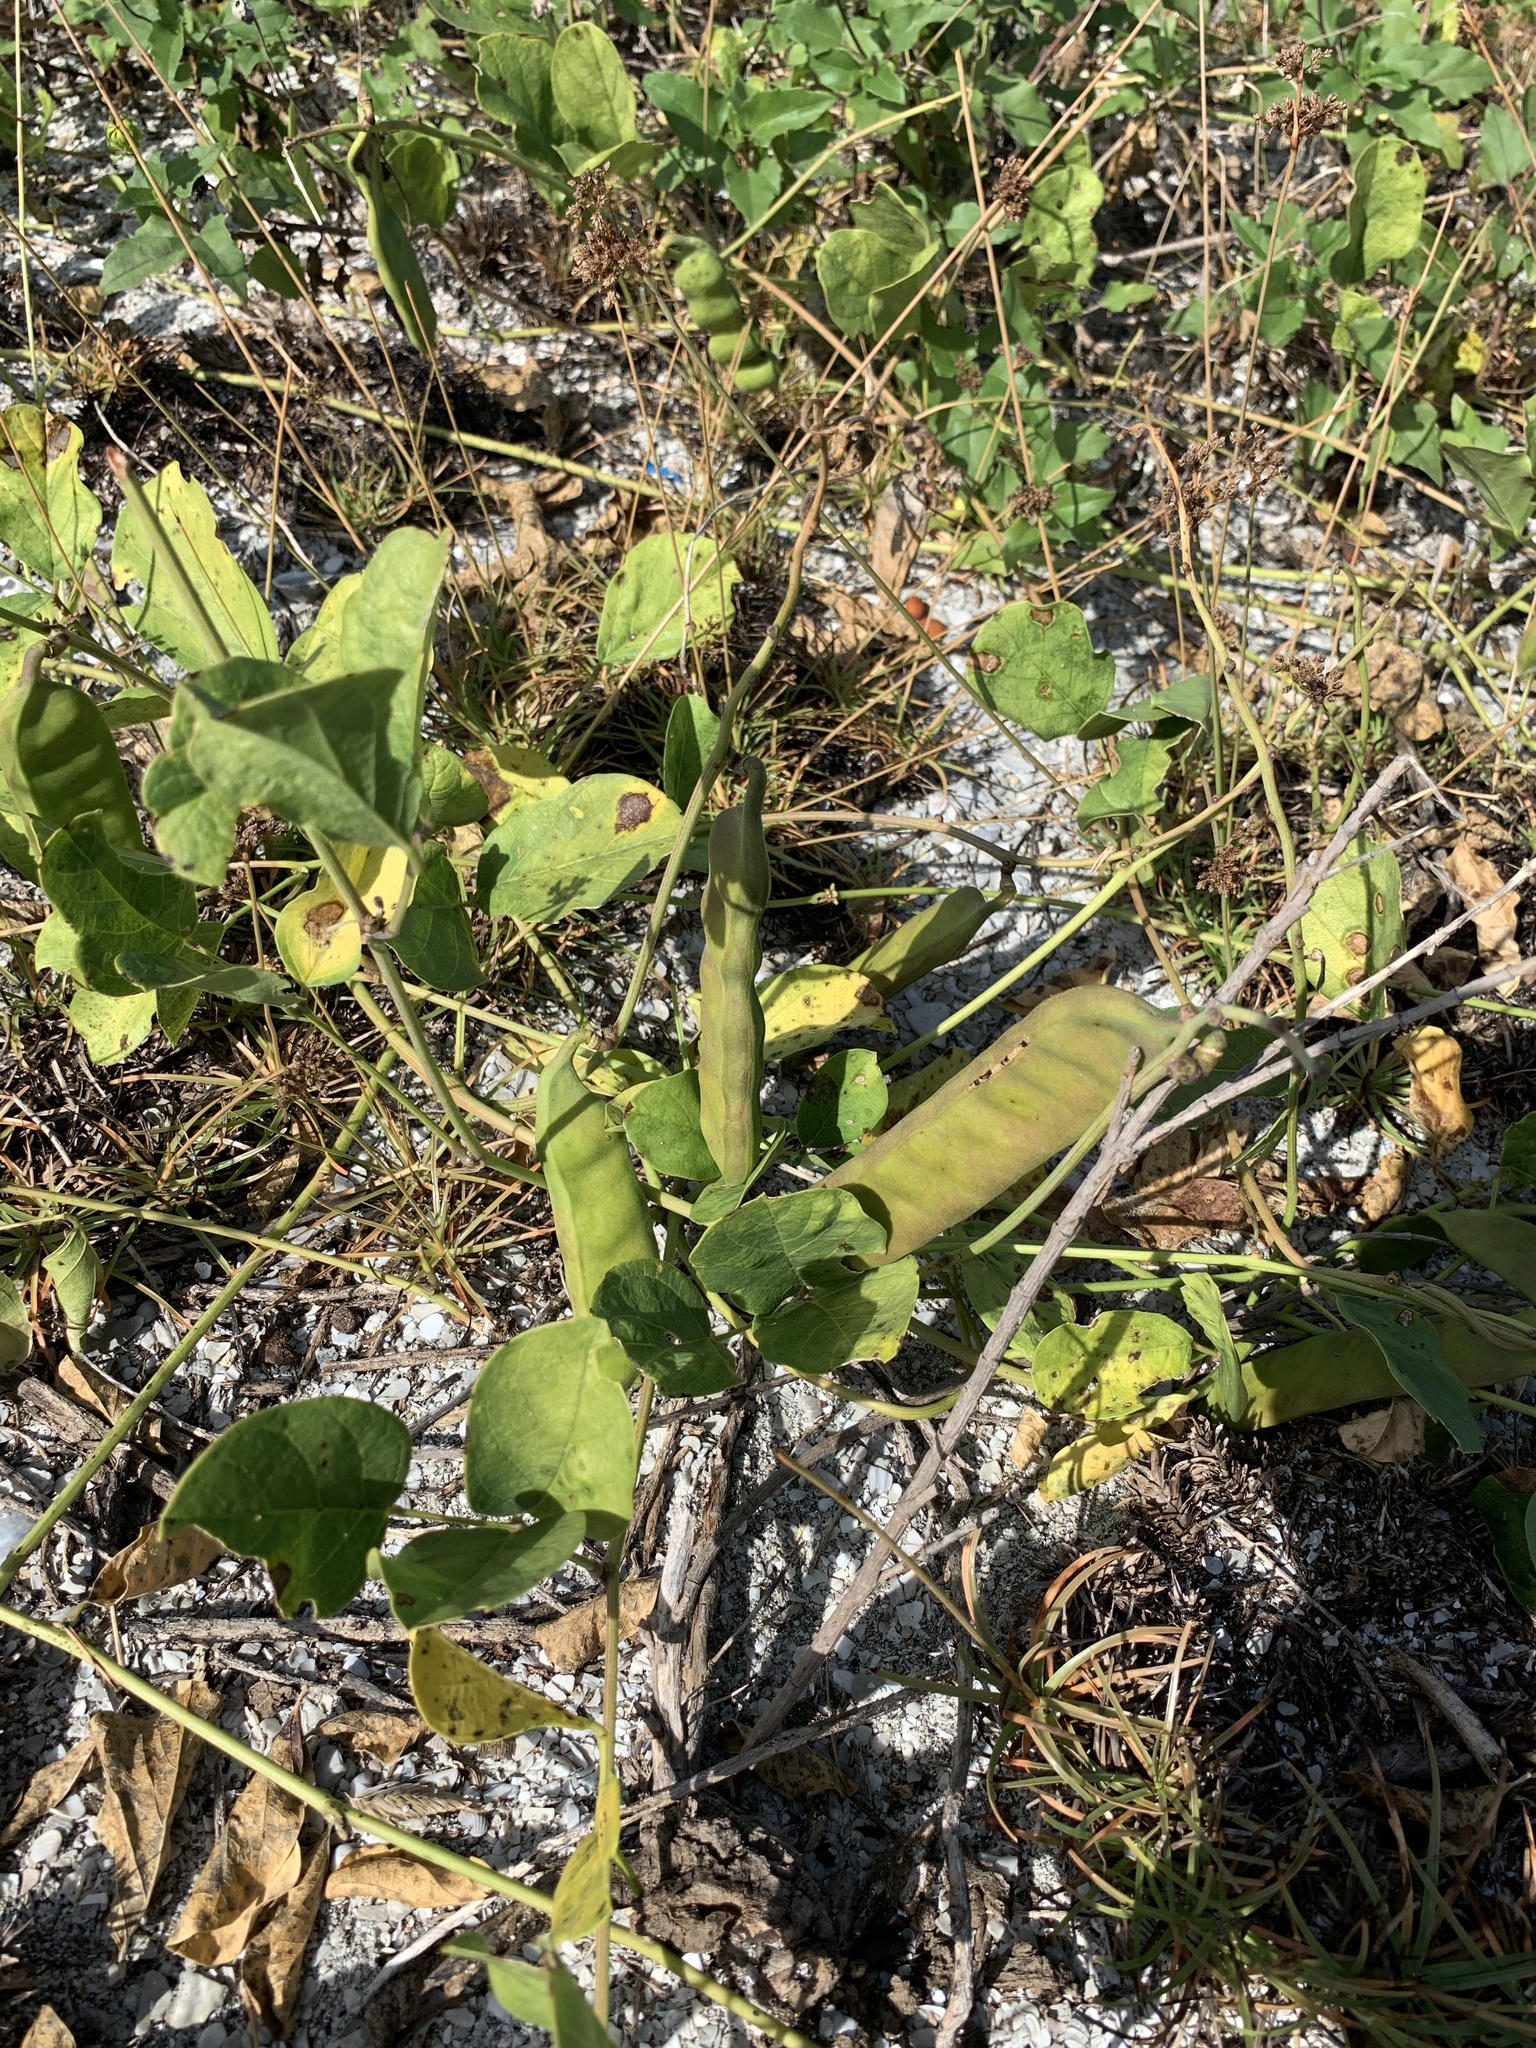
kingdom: Plantae
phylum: Tracheophyta
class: Magnoliopsida
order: Fabales
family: Fabaceae
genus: Canavalia
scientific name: Canavalia rosea
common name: Beach-bean
